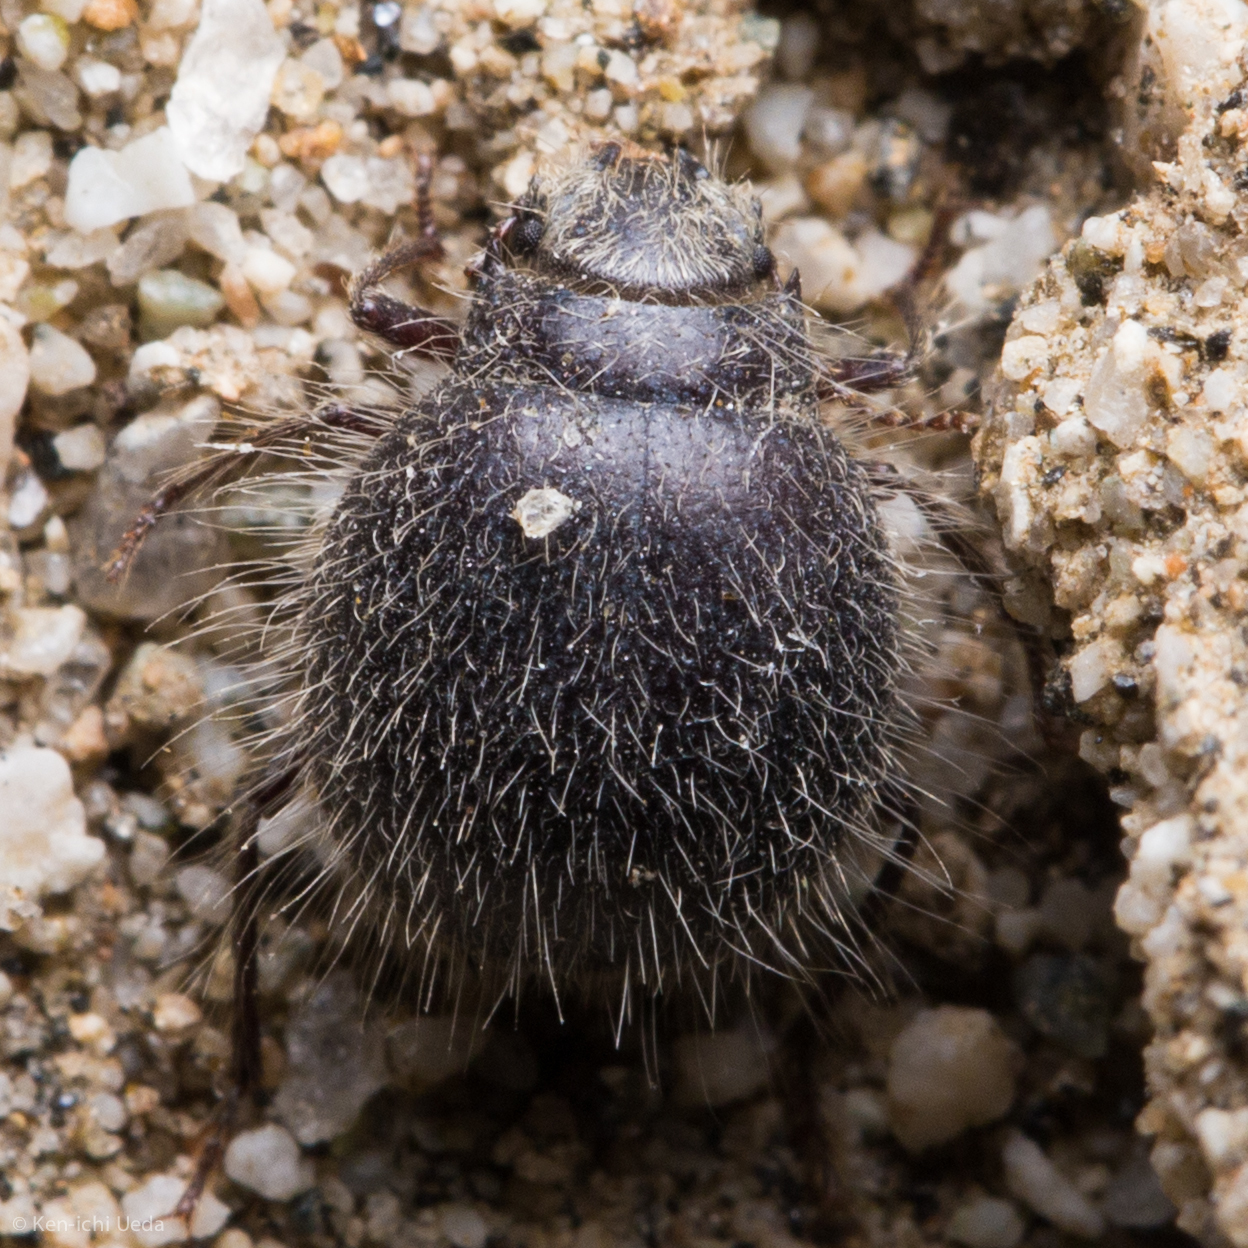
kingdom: Animalia
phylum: Arthropoda
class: Insecta
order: Coleoptera
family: Tenebrionidae
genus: Edrotes
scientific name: Edrotes ventricosus
